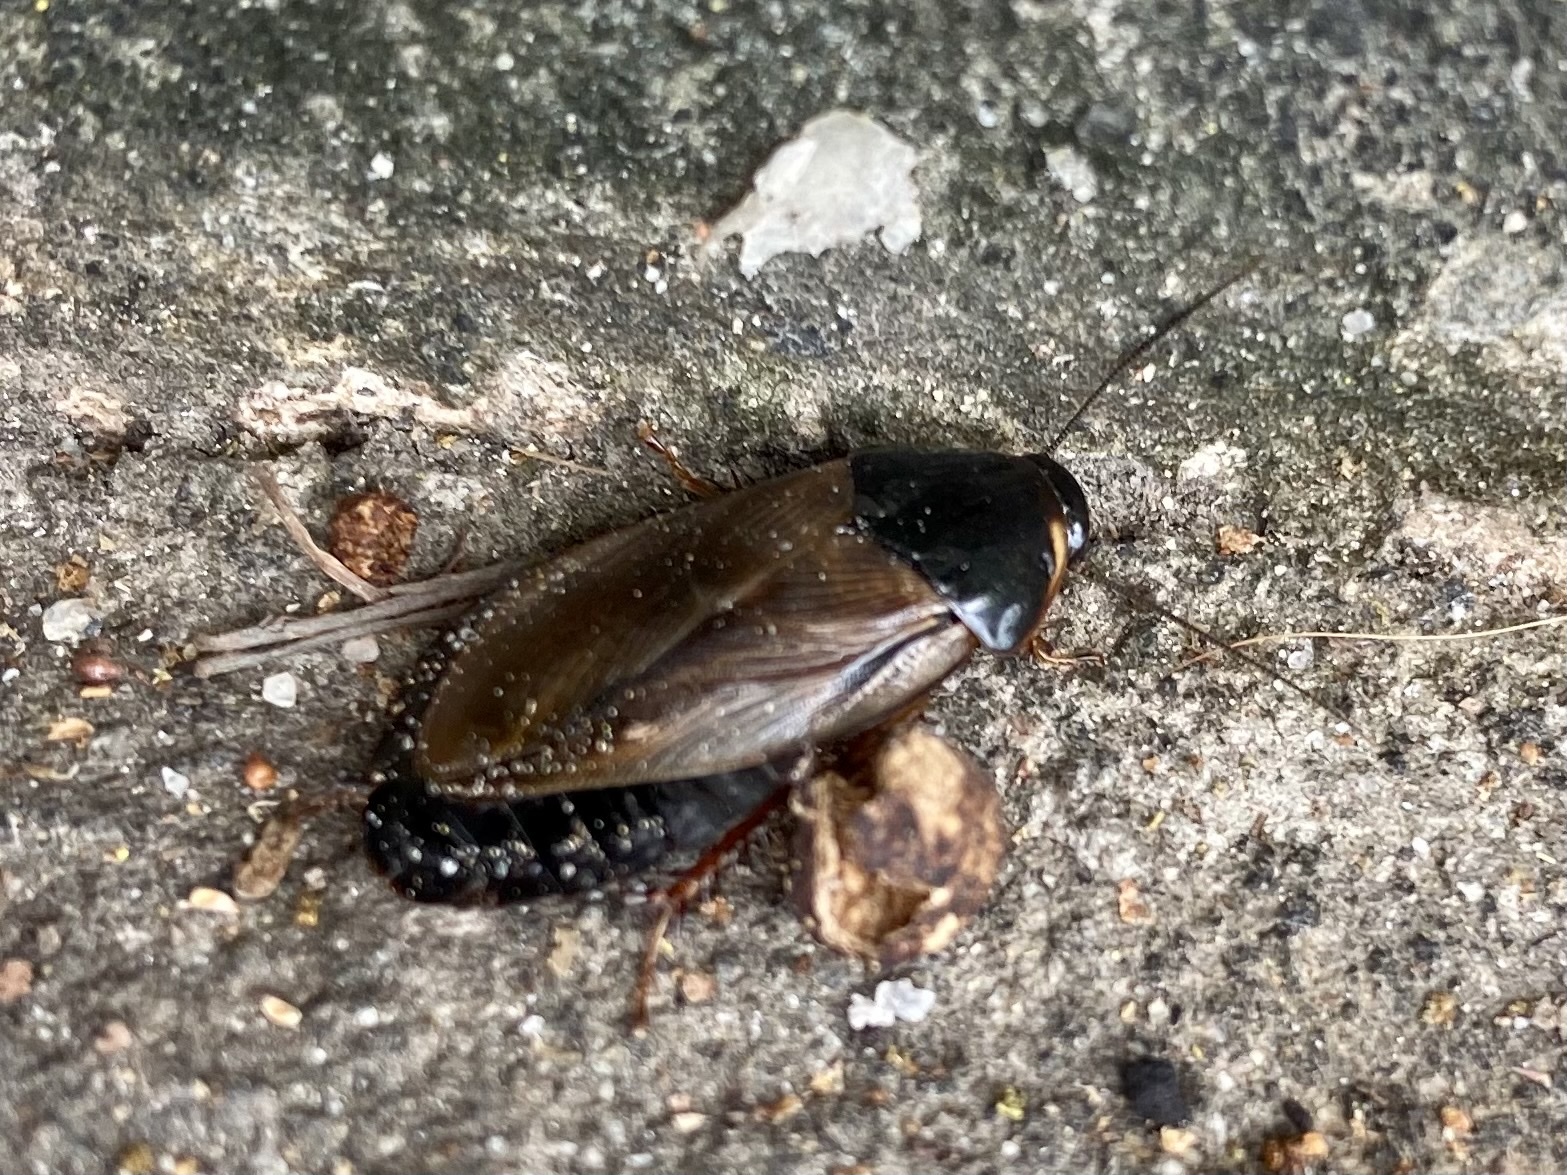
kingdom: Animalia
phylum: Arthropoda
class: Insecta
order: Blattodea
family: Blaberidae
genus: Pycnoscelus
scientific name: Pycnoscelus surinamensis
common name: Surinam cockroach
